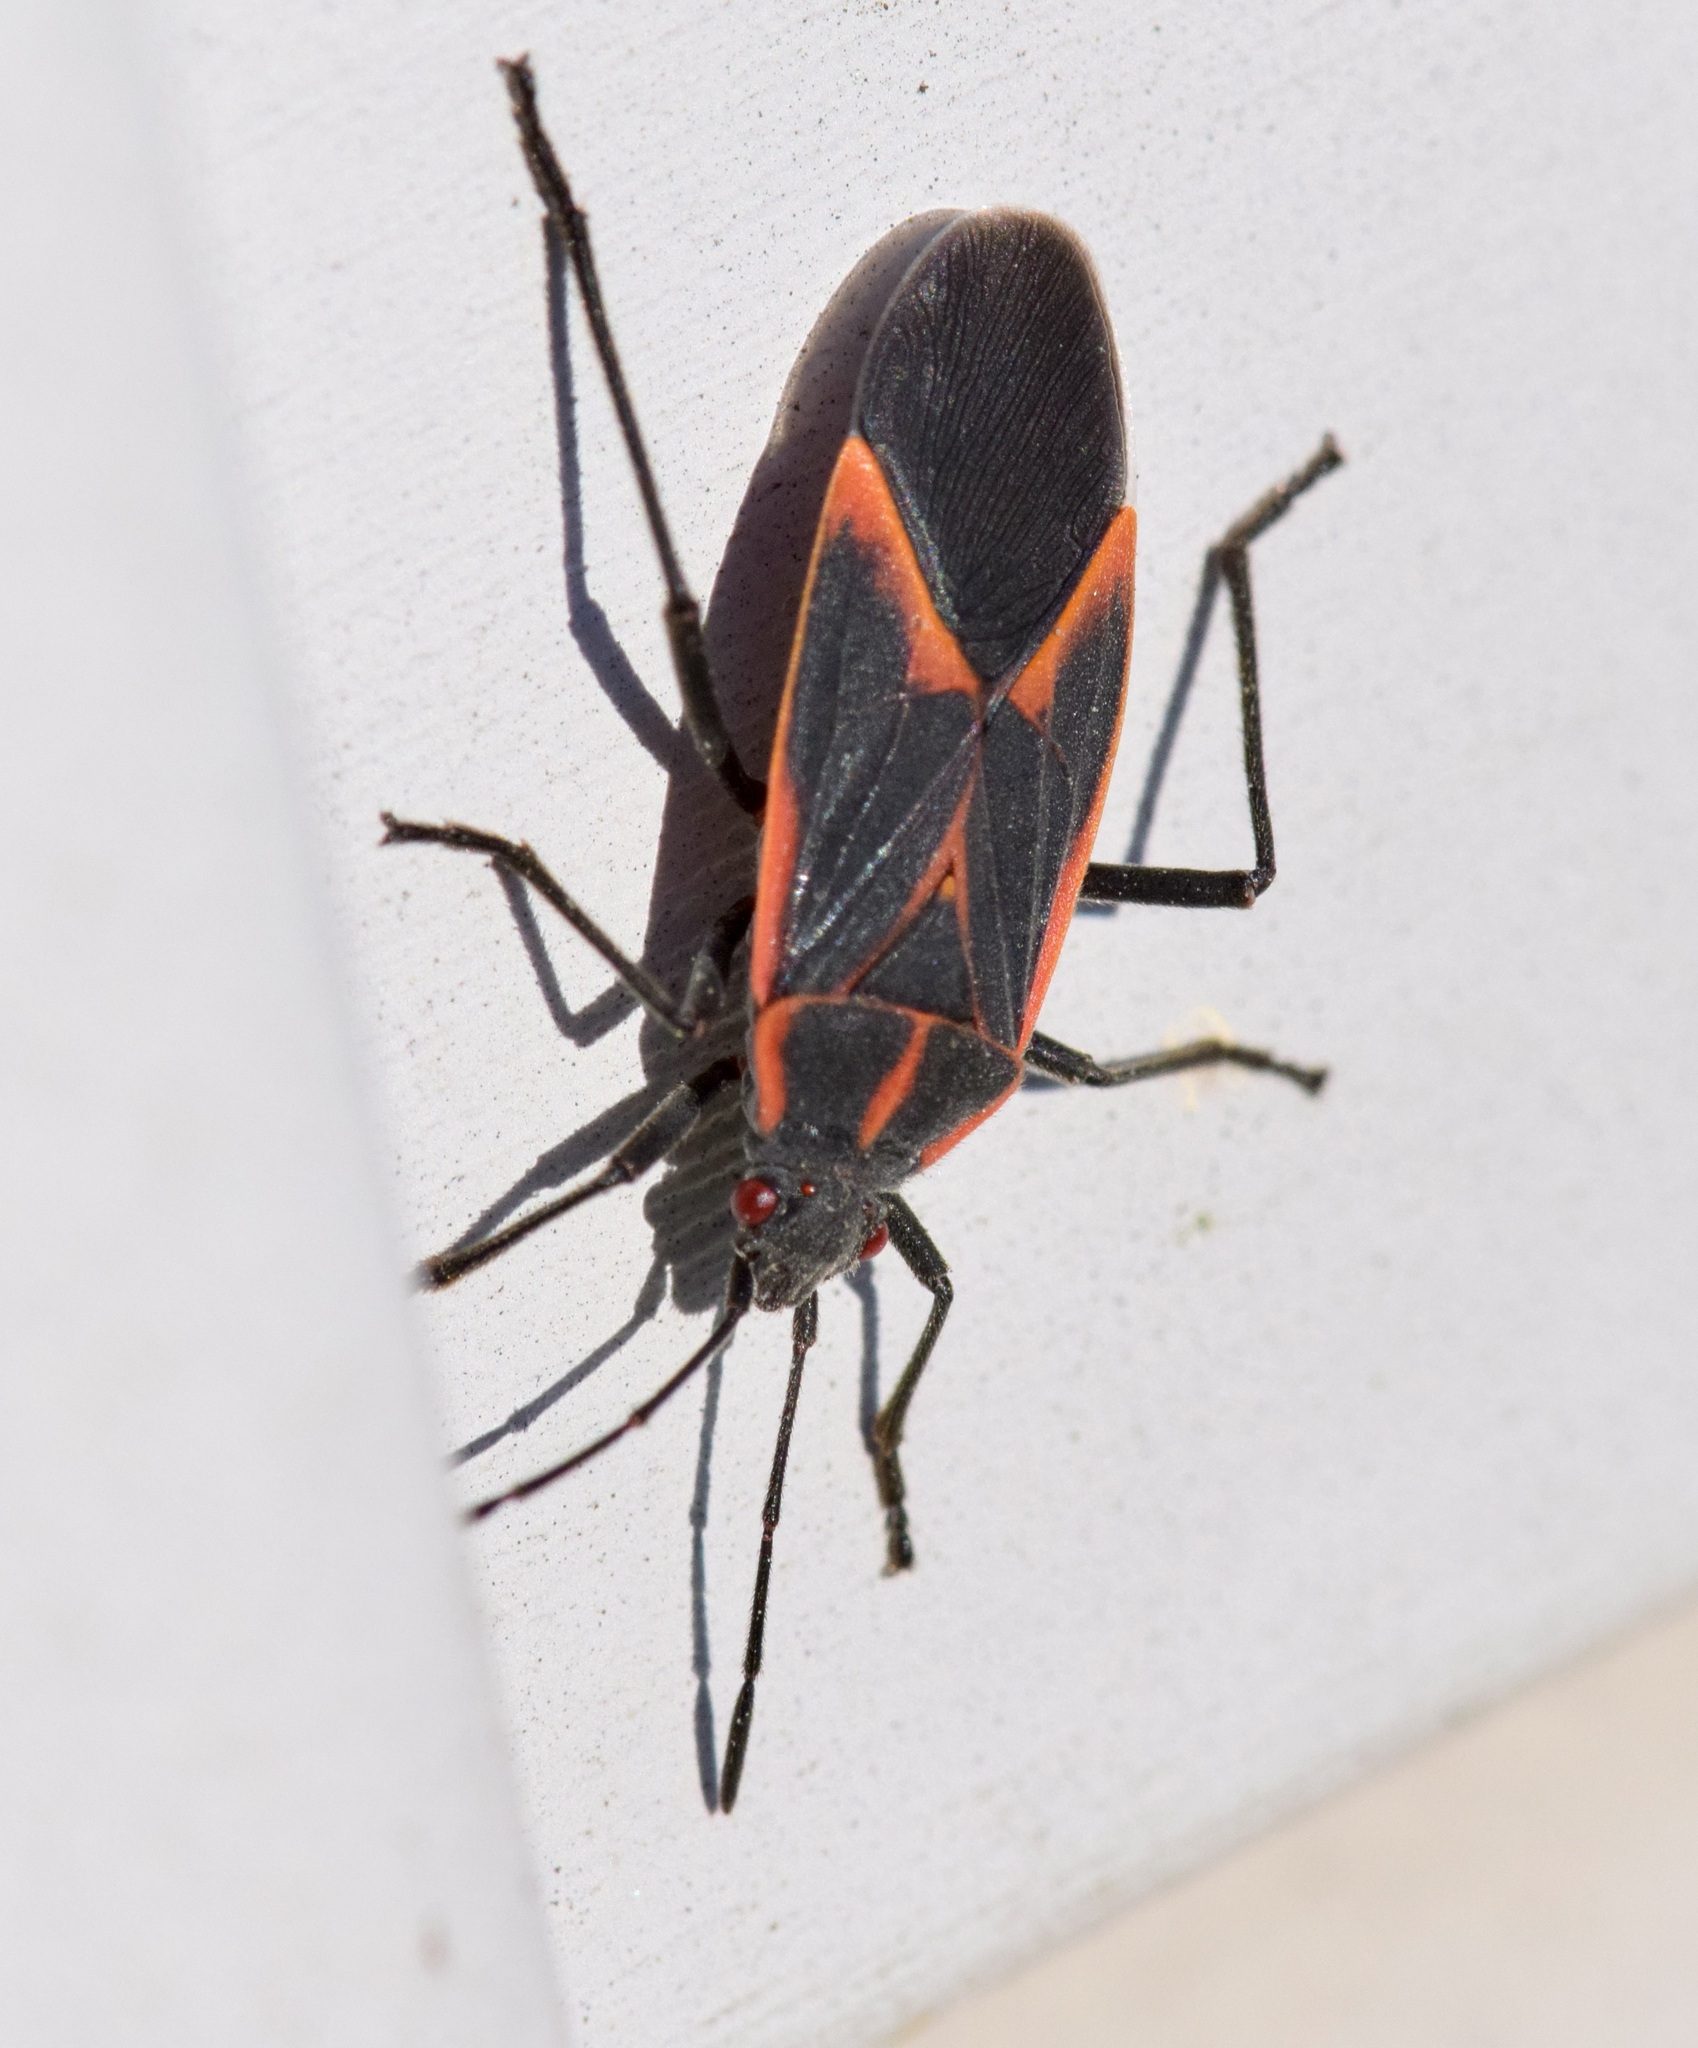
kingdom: Animalia
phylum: Arthropoda
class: Insecta
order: Hemiptera
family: Rhopalidae
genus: Boisea
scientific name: Boisea trivittata
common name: Boxelder bug
